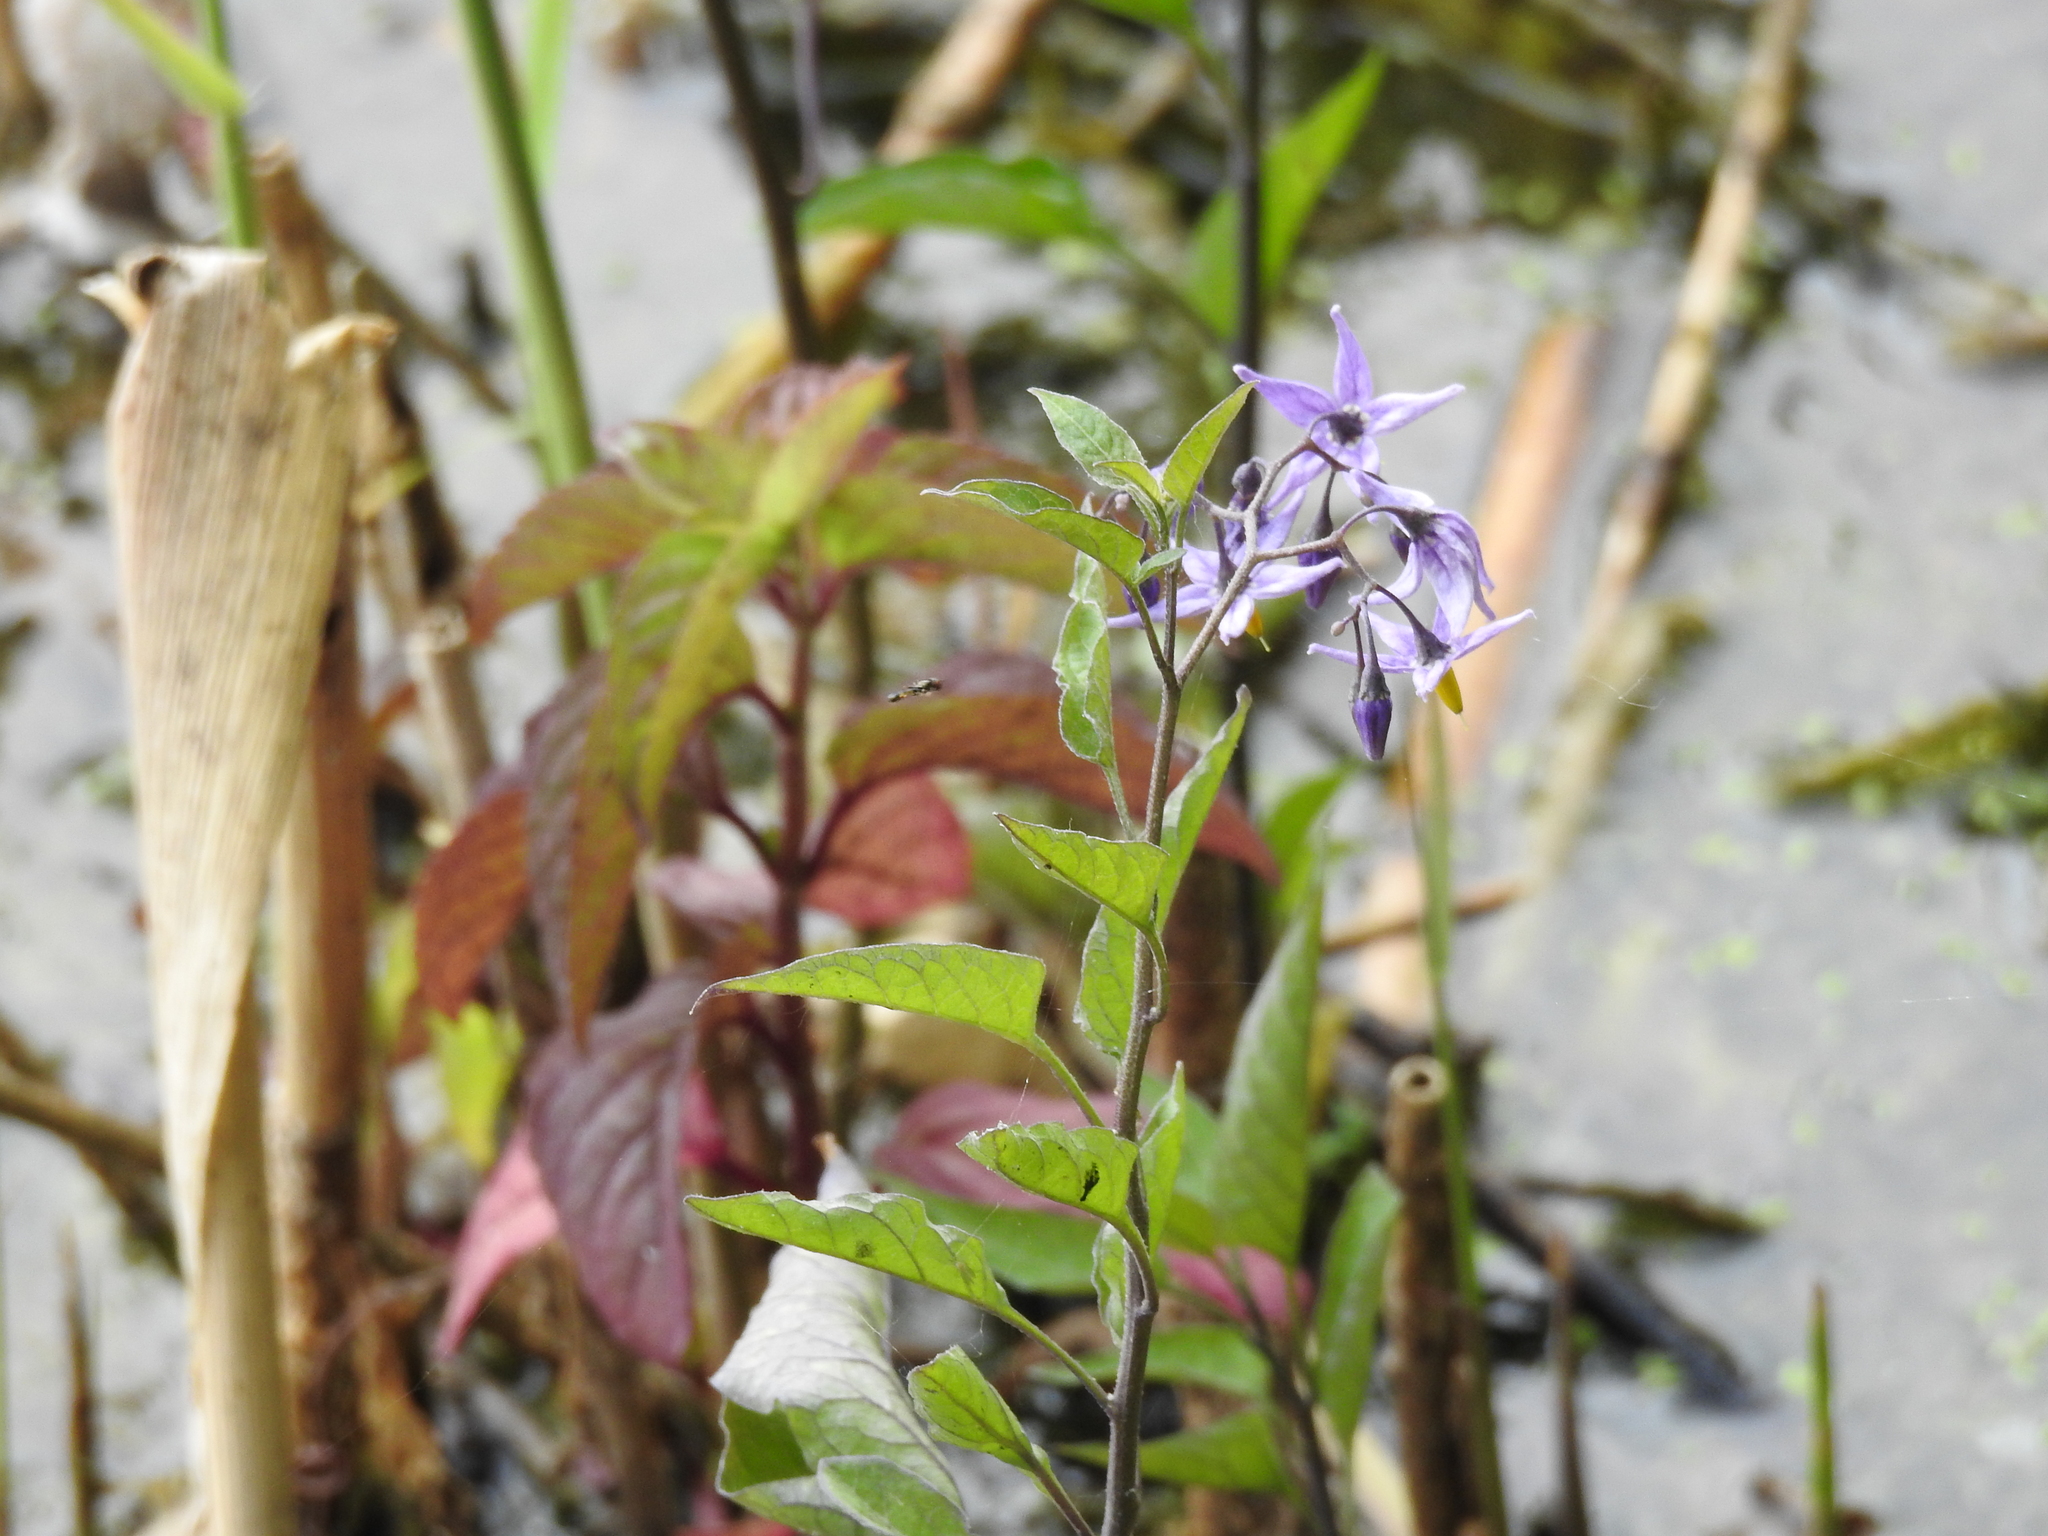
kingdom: Plantae
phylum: Tracheophyta
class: Magnoliopsida
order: Solanales
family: Solanaceae
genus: Solanum
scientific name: Solanum dulcamara
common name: Climbing nightshade
